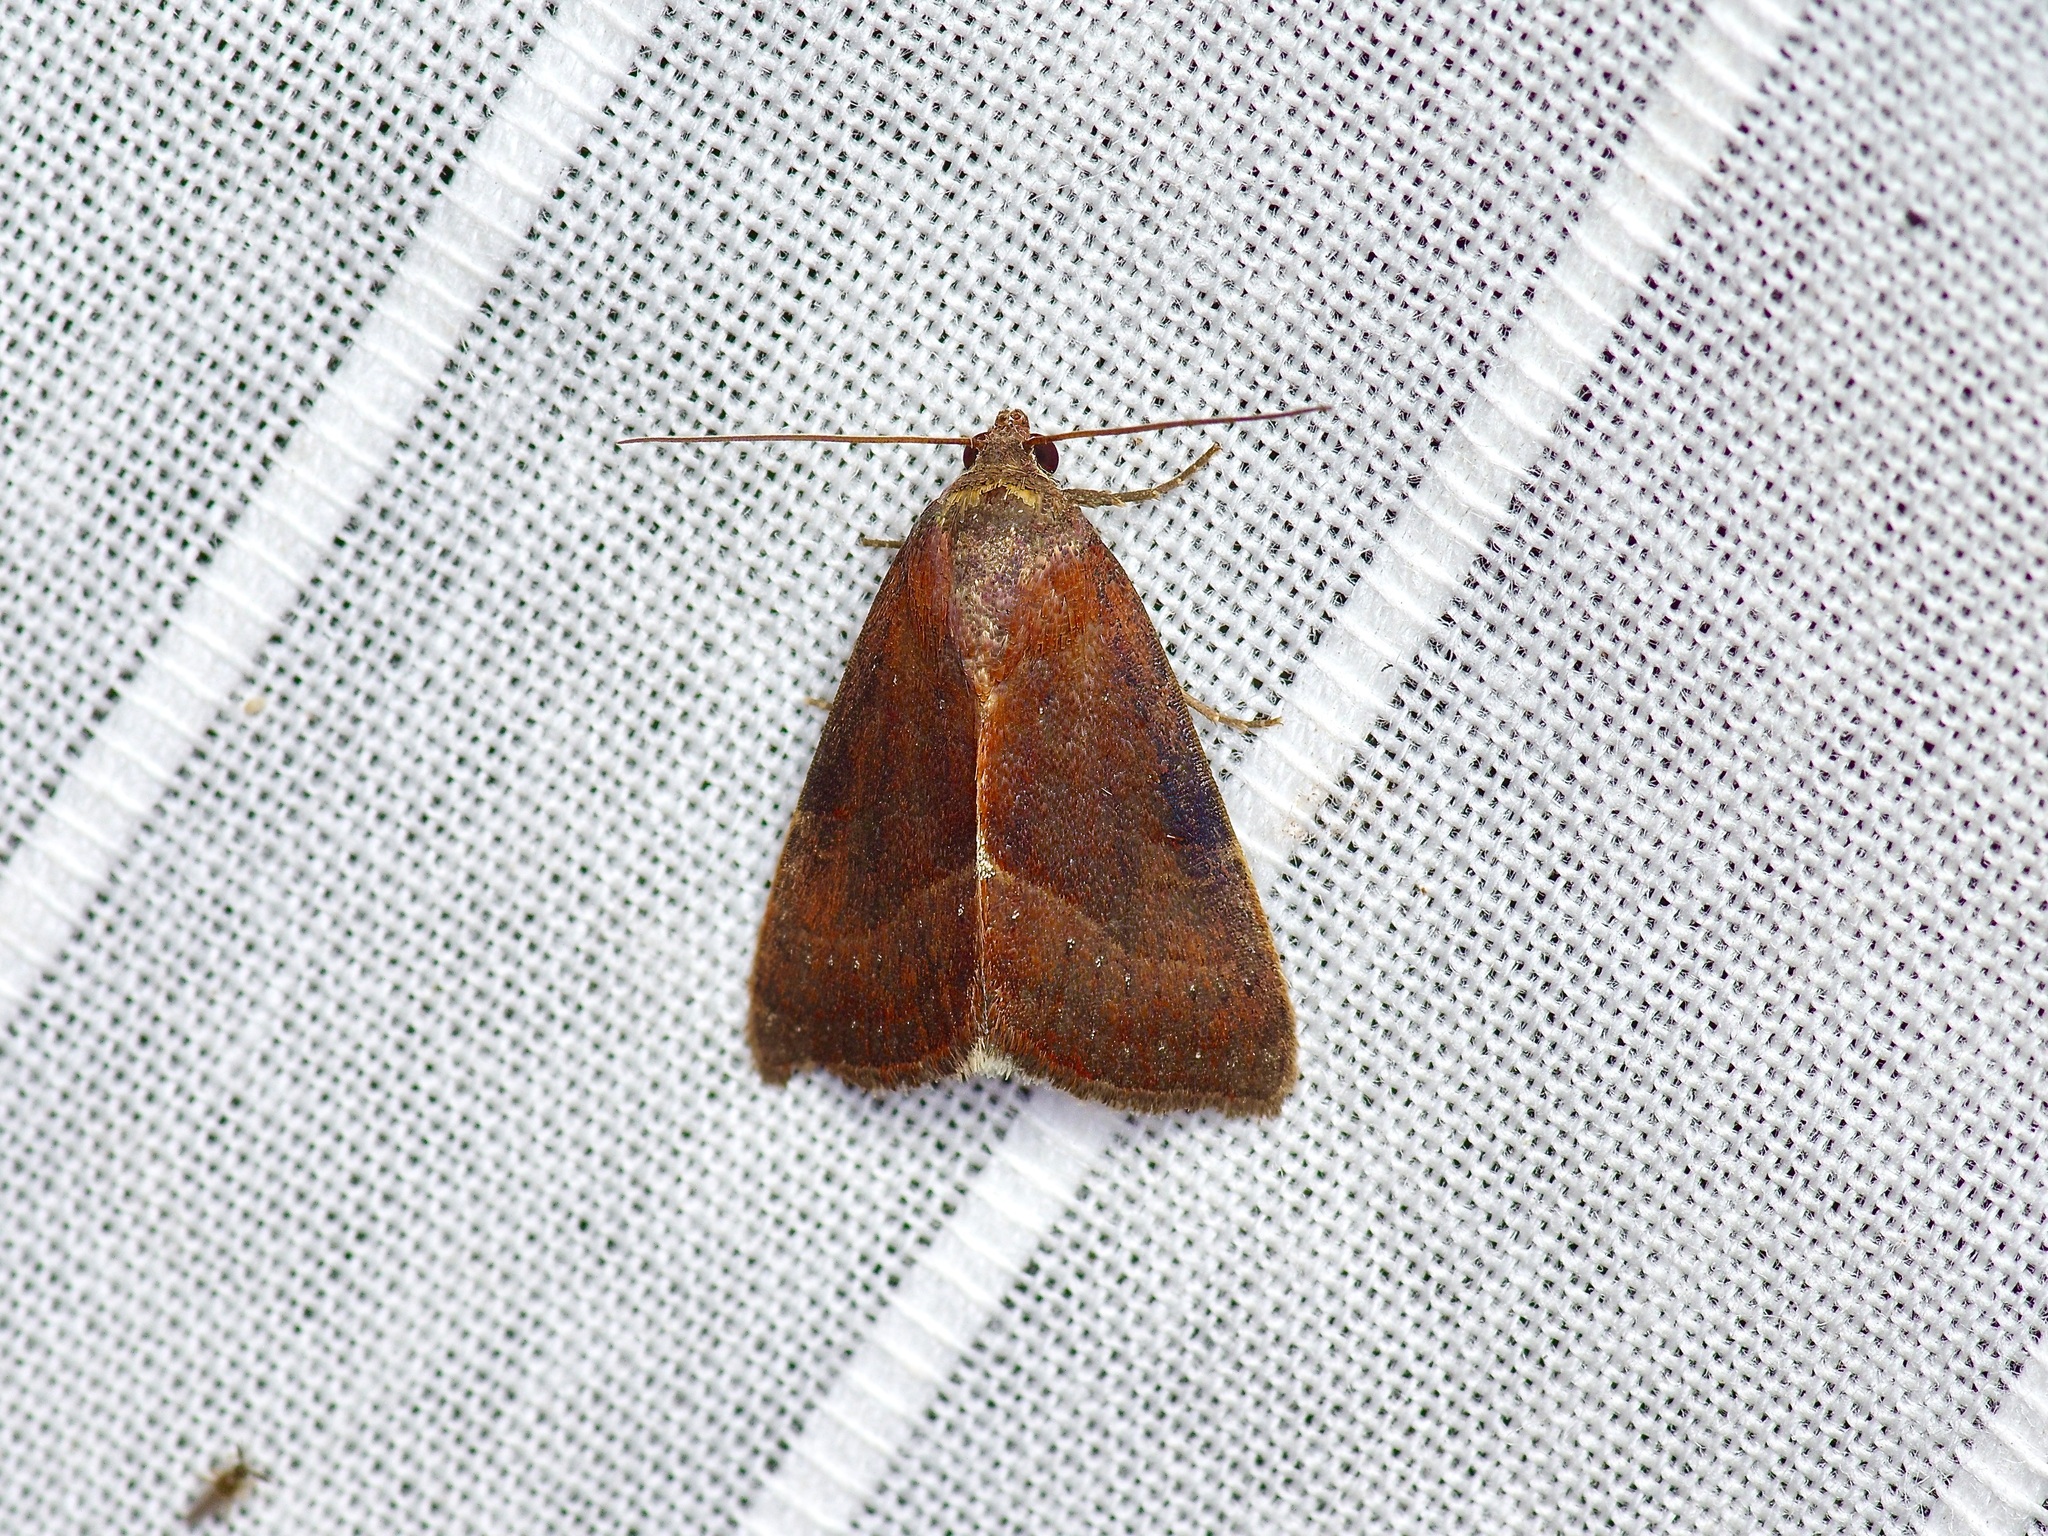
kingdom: Animalia
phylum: Arthropoda
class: Insecta
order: Lepidoptera
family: Noctuidae
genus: Galgula
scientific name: Galgula partita
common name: Wedgeling
